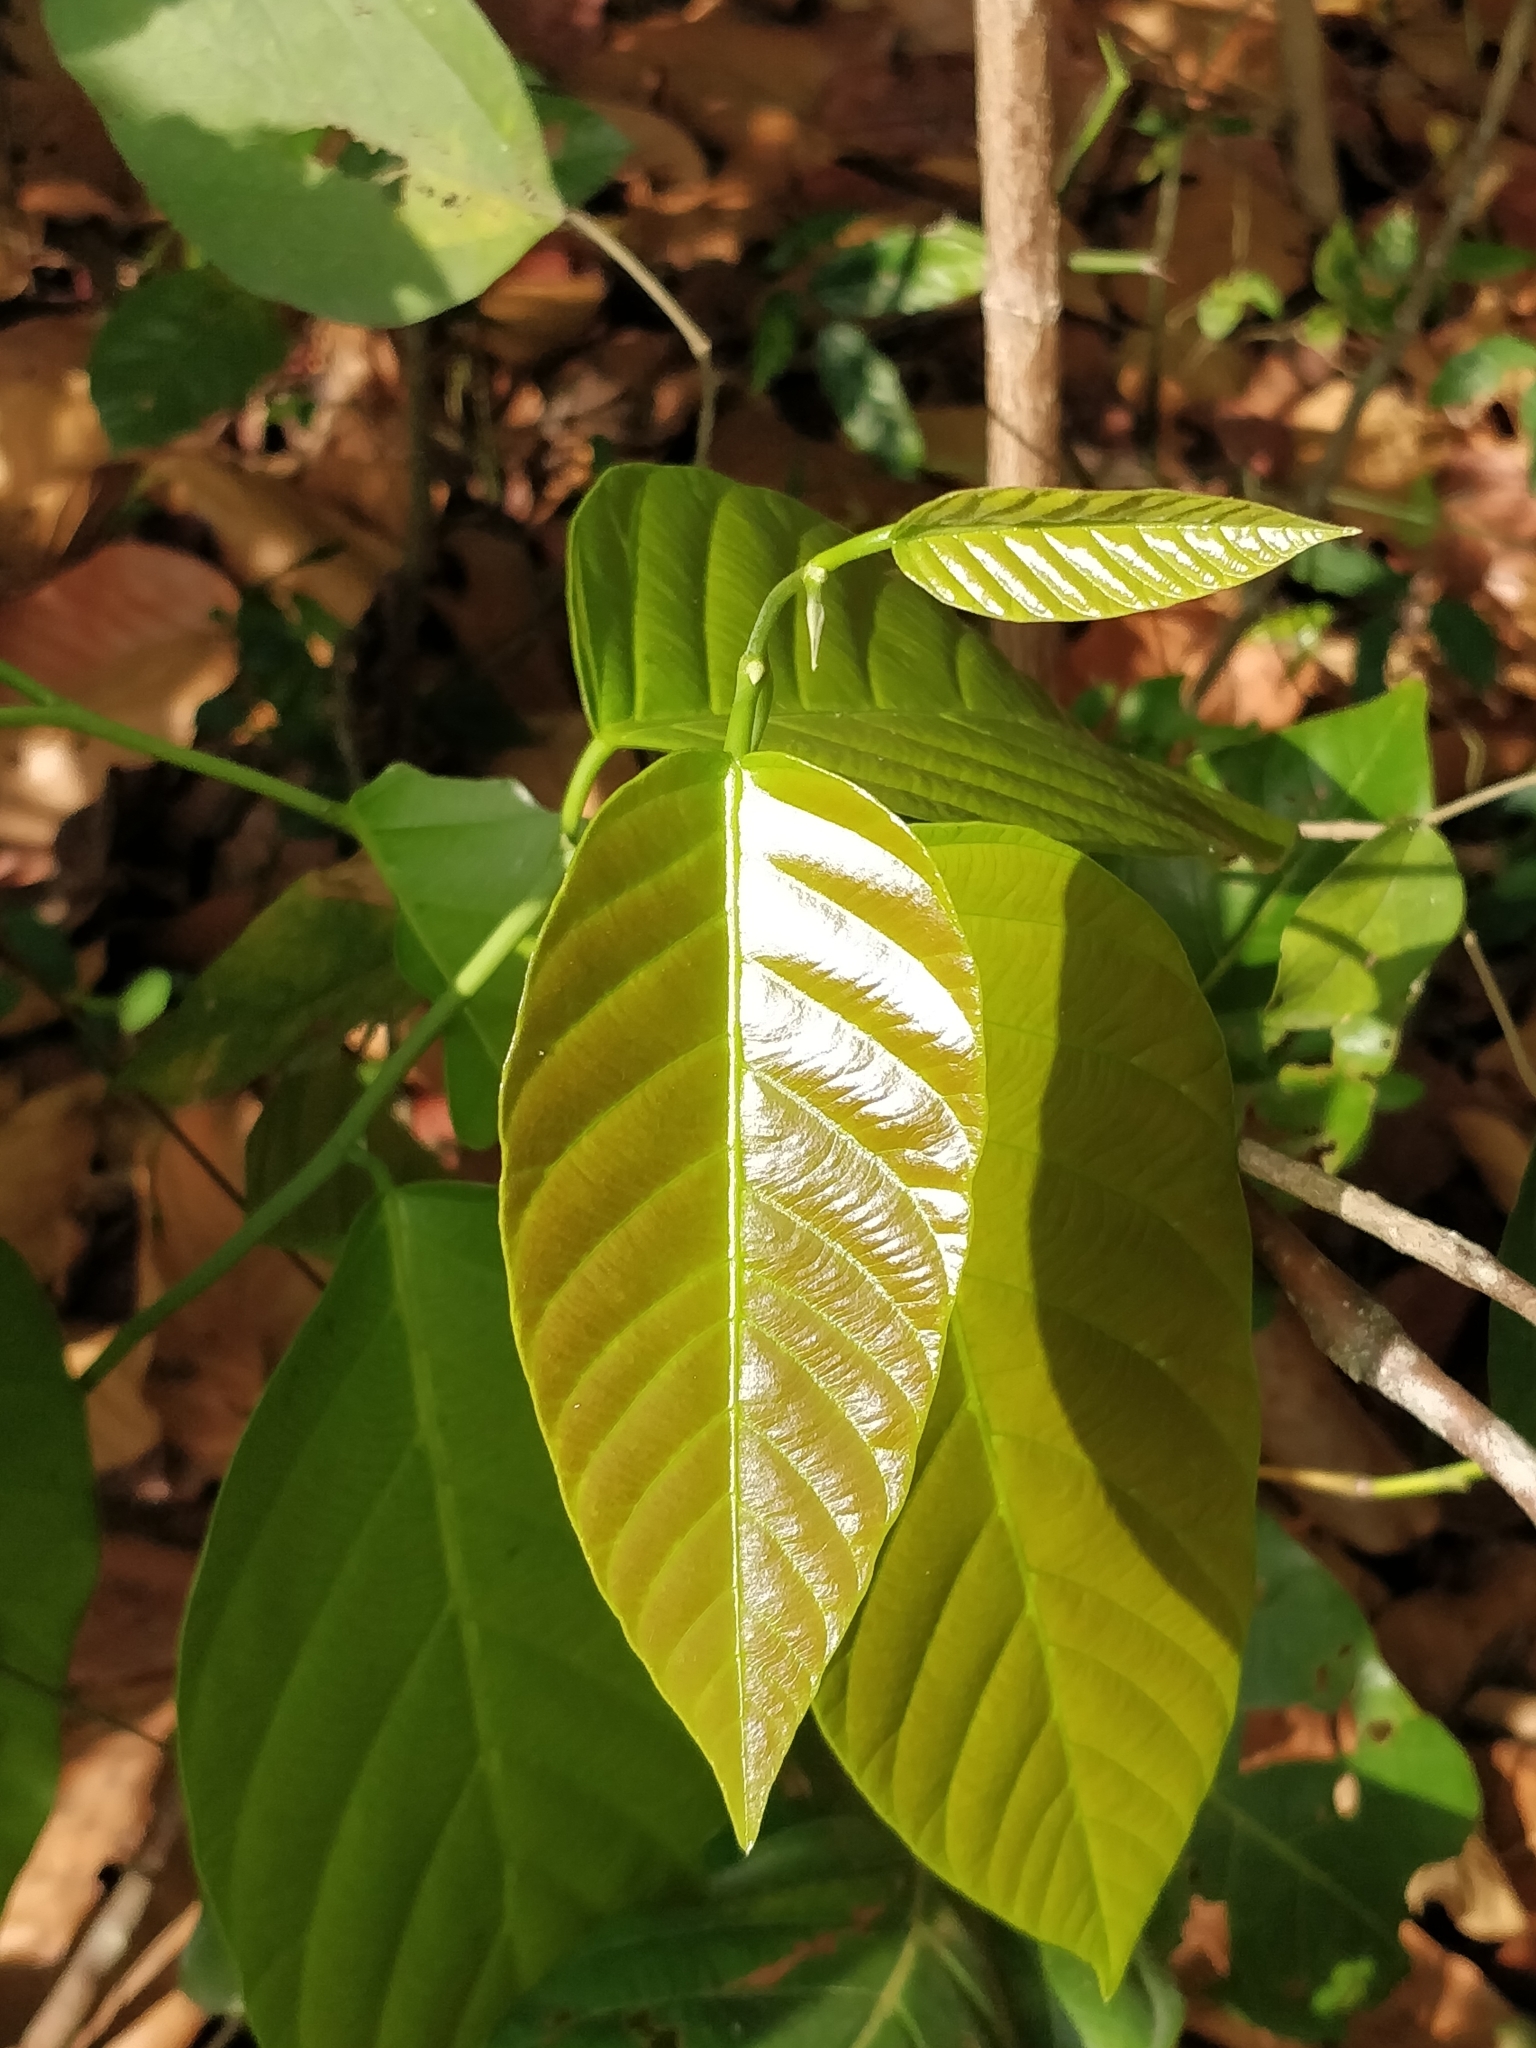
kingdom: Plantae
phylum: Tracheophyta
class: Magnoliopsida
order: Malvales
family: Dipterocarpaceae
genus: Shorea
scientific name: Shorea robusta
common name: Saltree
